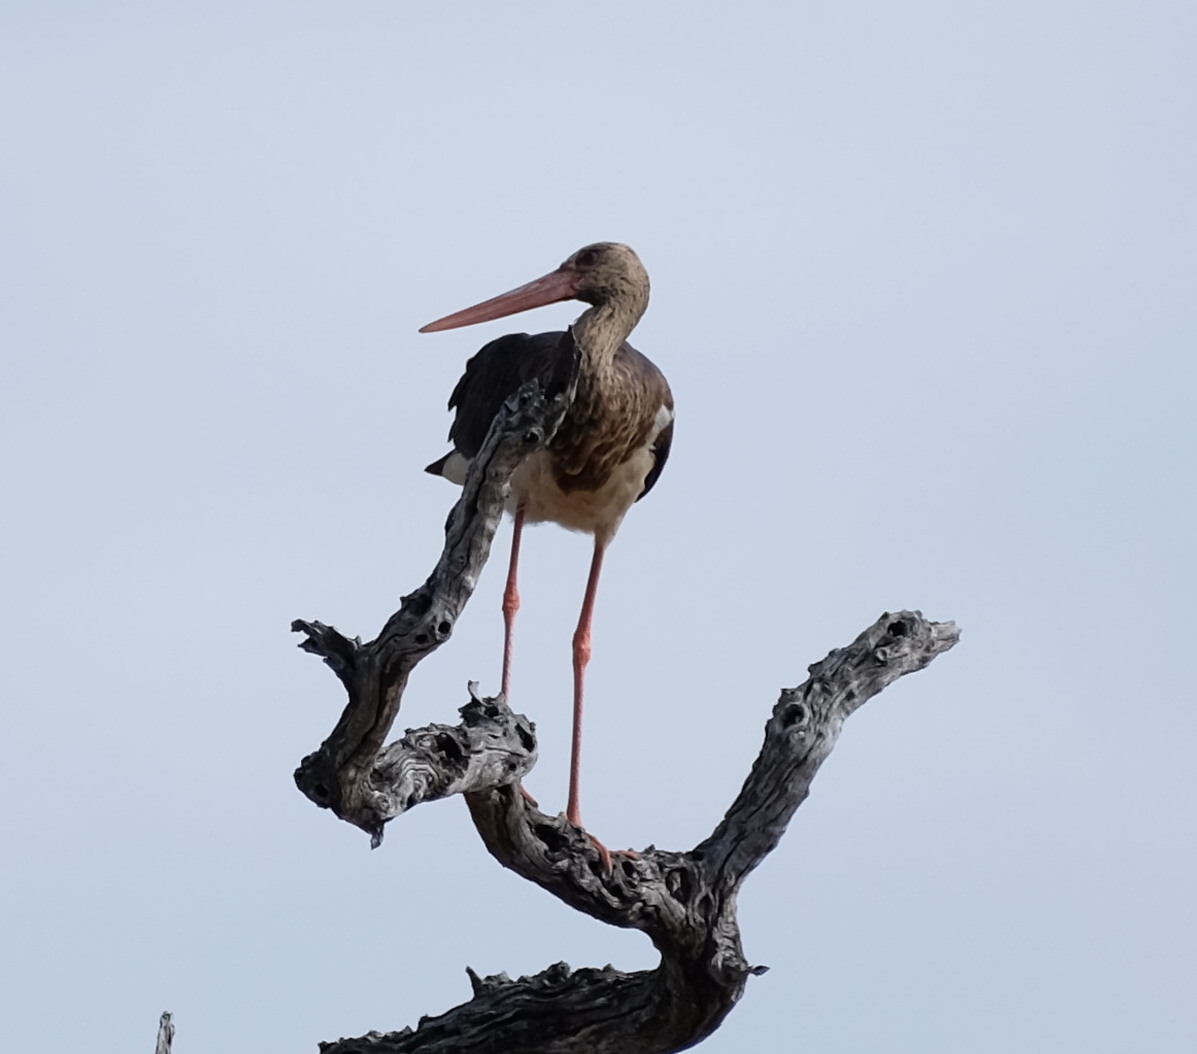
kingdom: Animalia
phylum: Chordata
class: Aves
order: Ciconiiformes
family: Ciconiidae
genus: Ciconia
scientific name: Ciconia nigra
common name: Black stork
